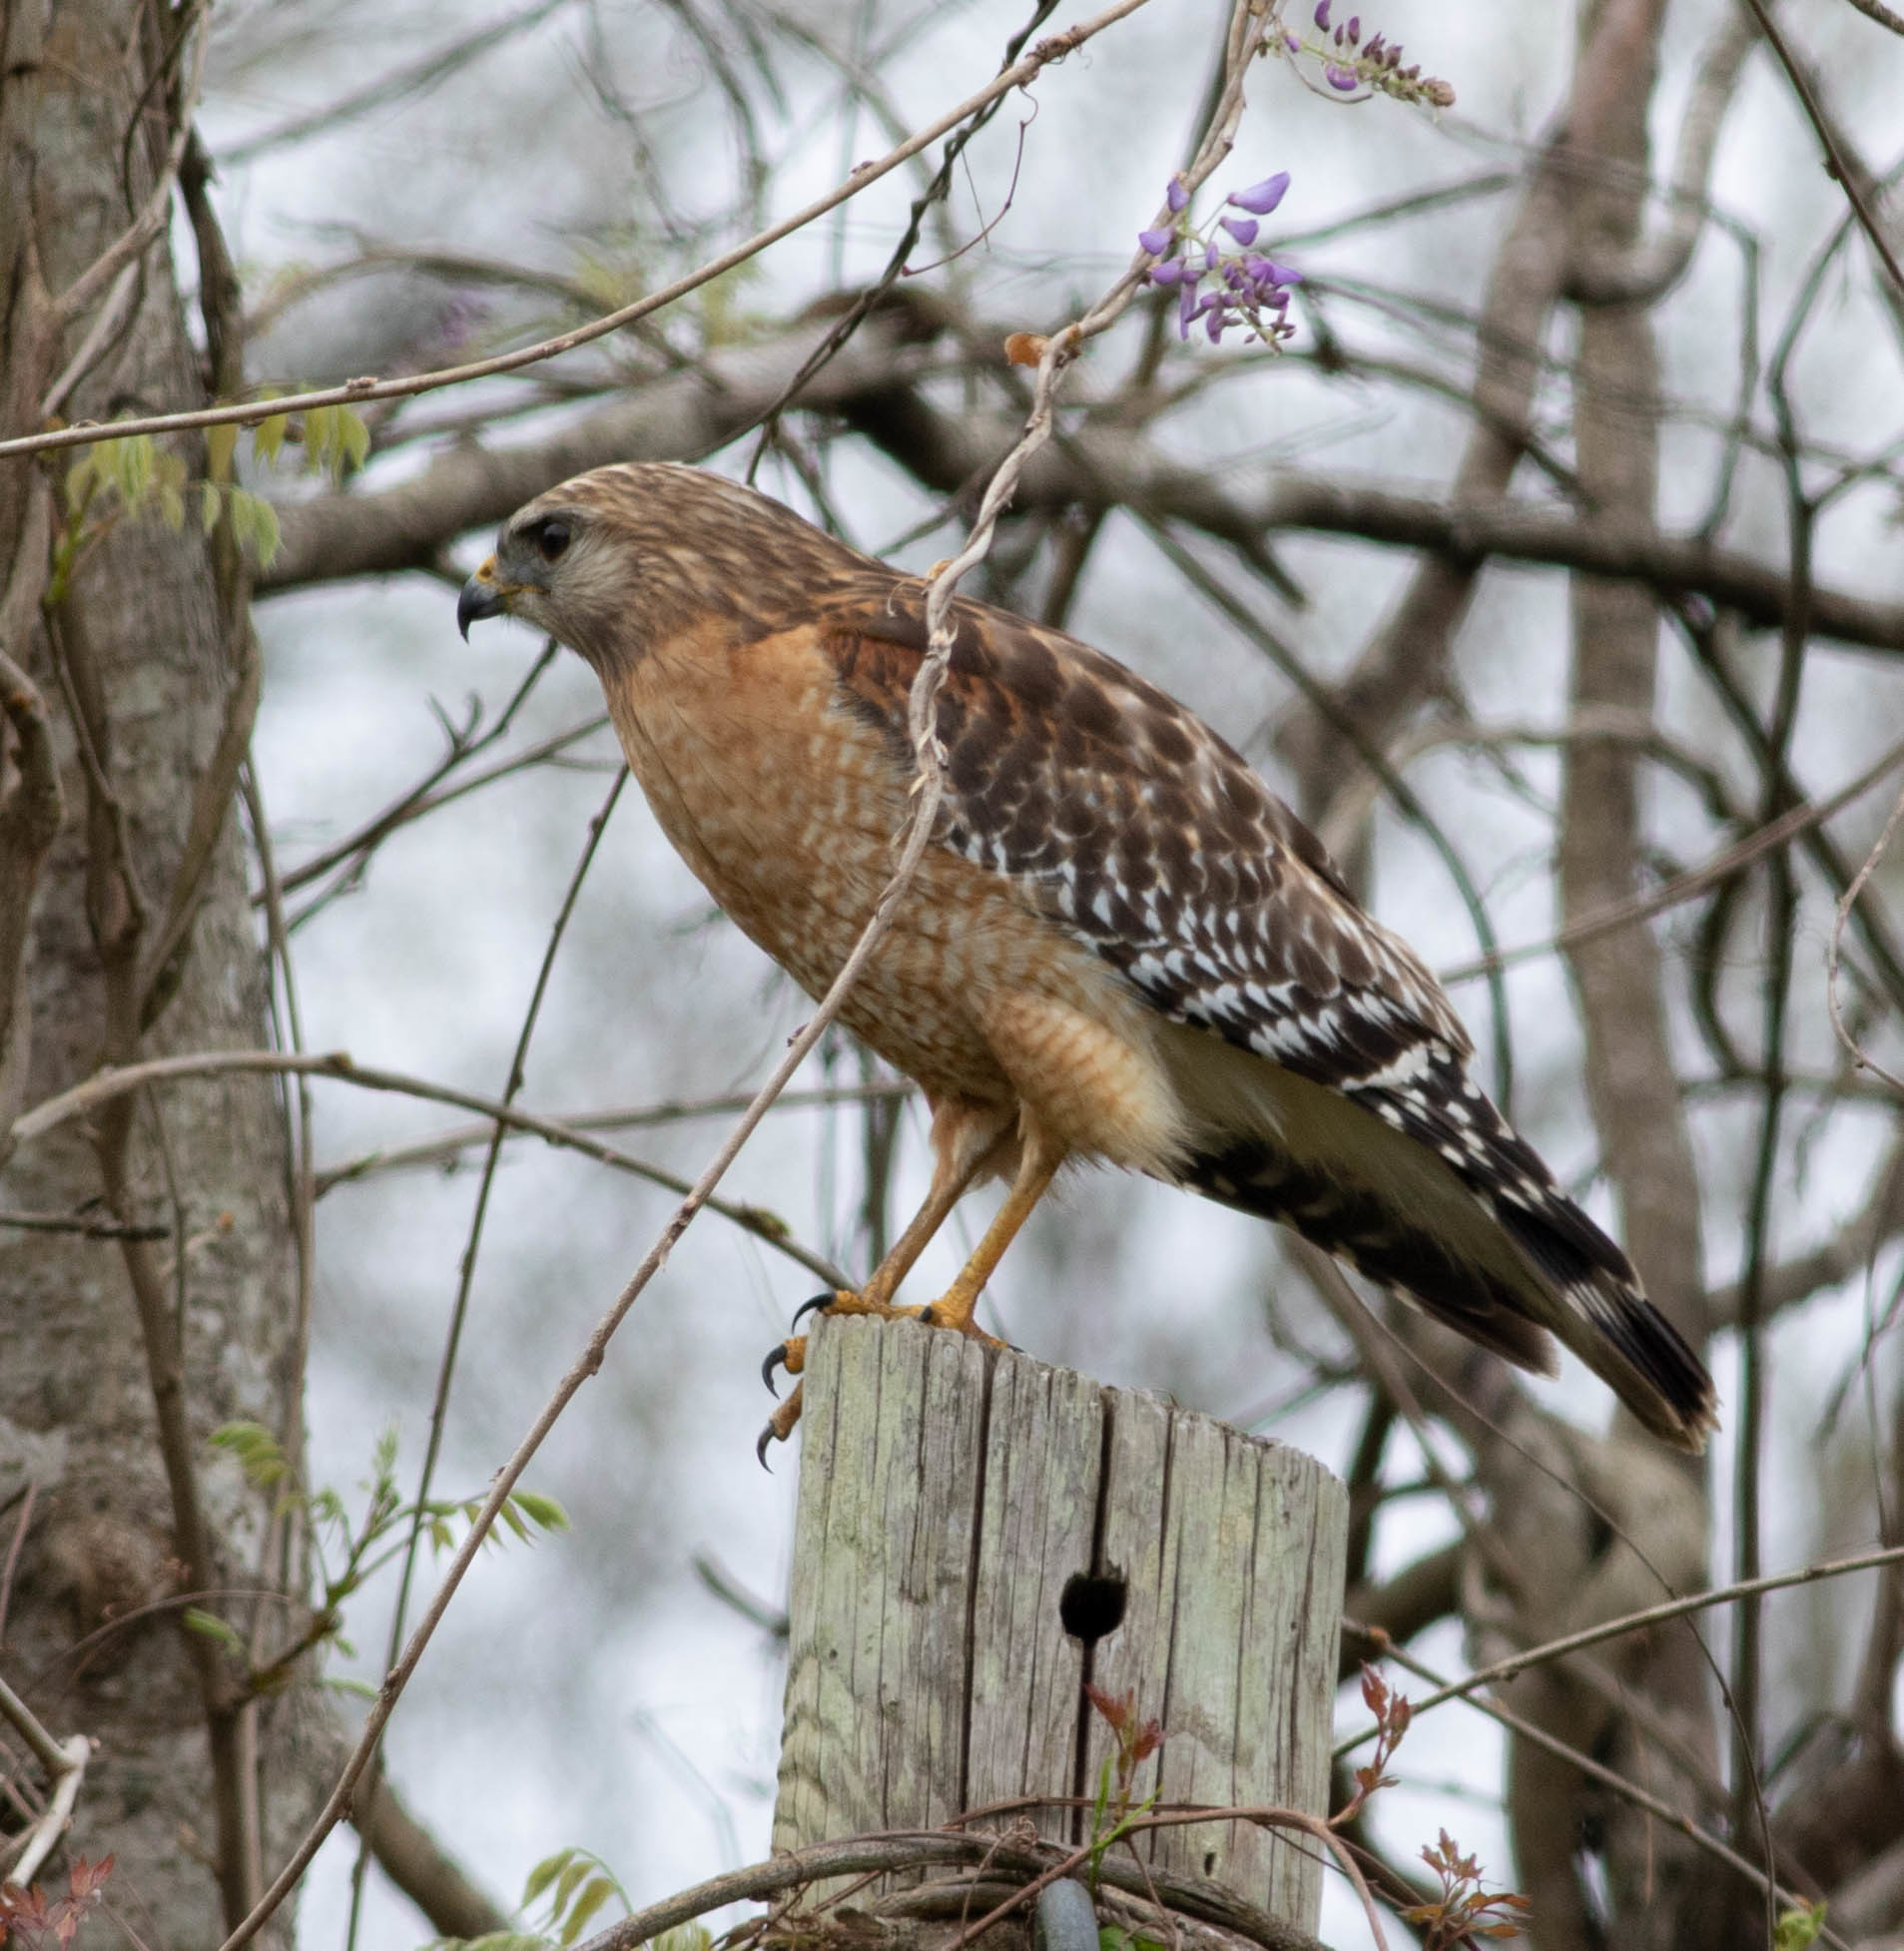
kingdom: Animalia
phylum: Chordata
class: Aves
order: Accipitriformes
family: Accipitridae
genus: Buteo
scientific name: Buteo lineatus
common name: Red-shouldered hawk
